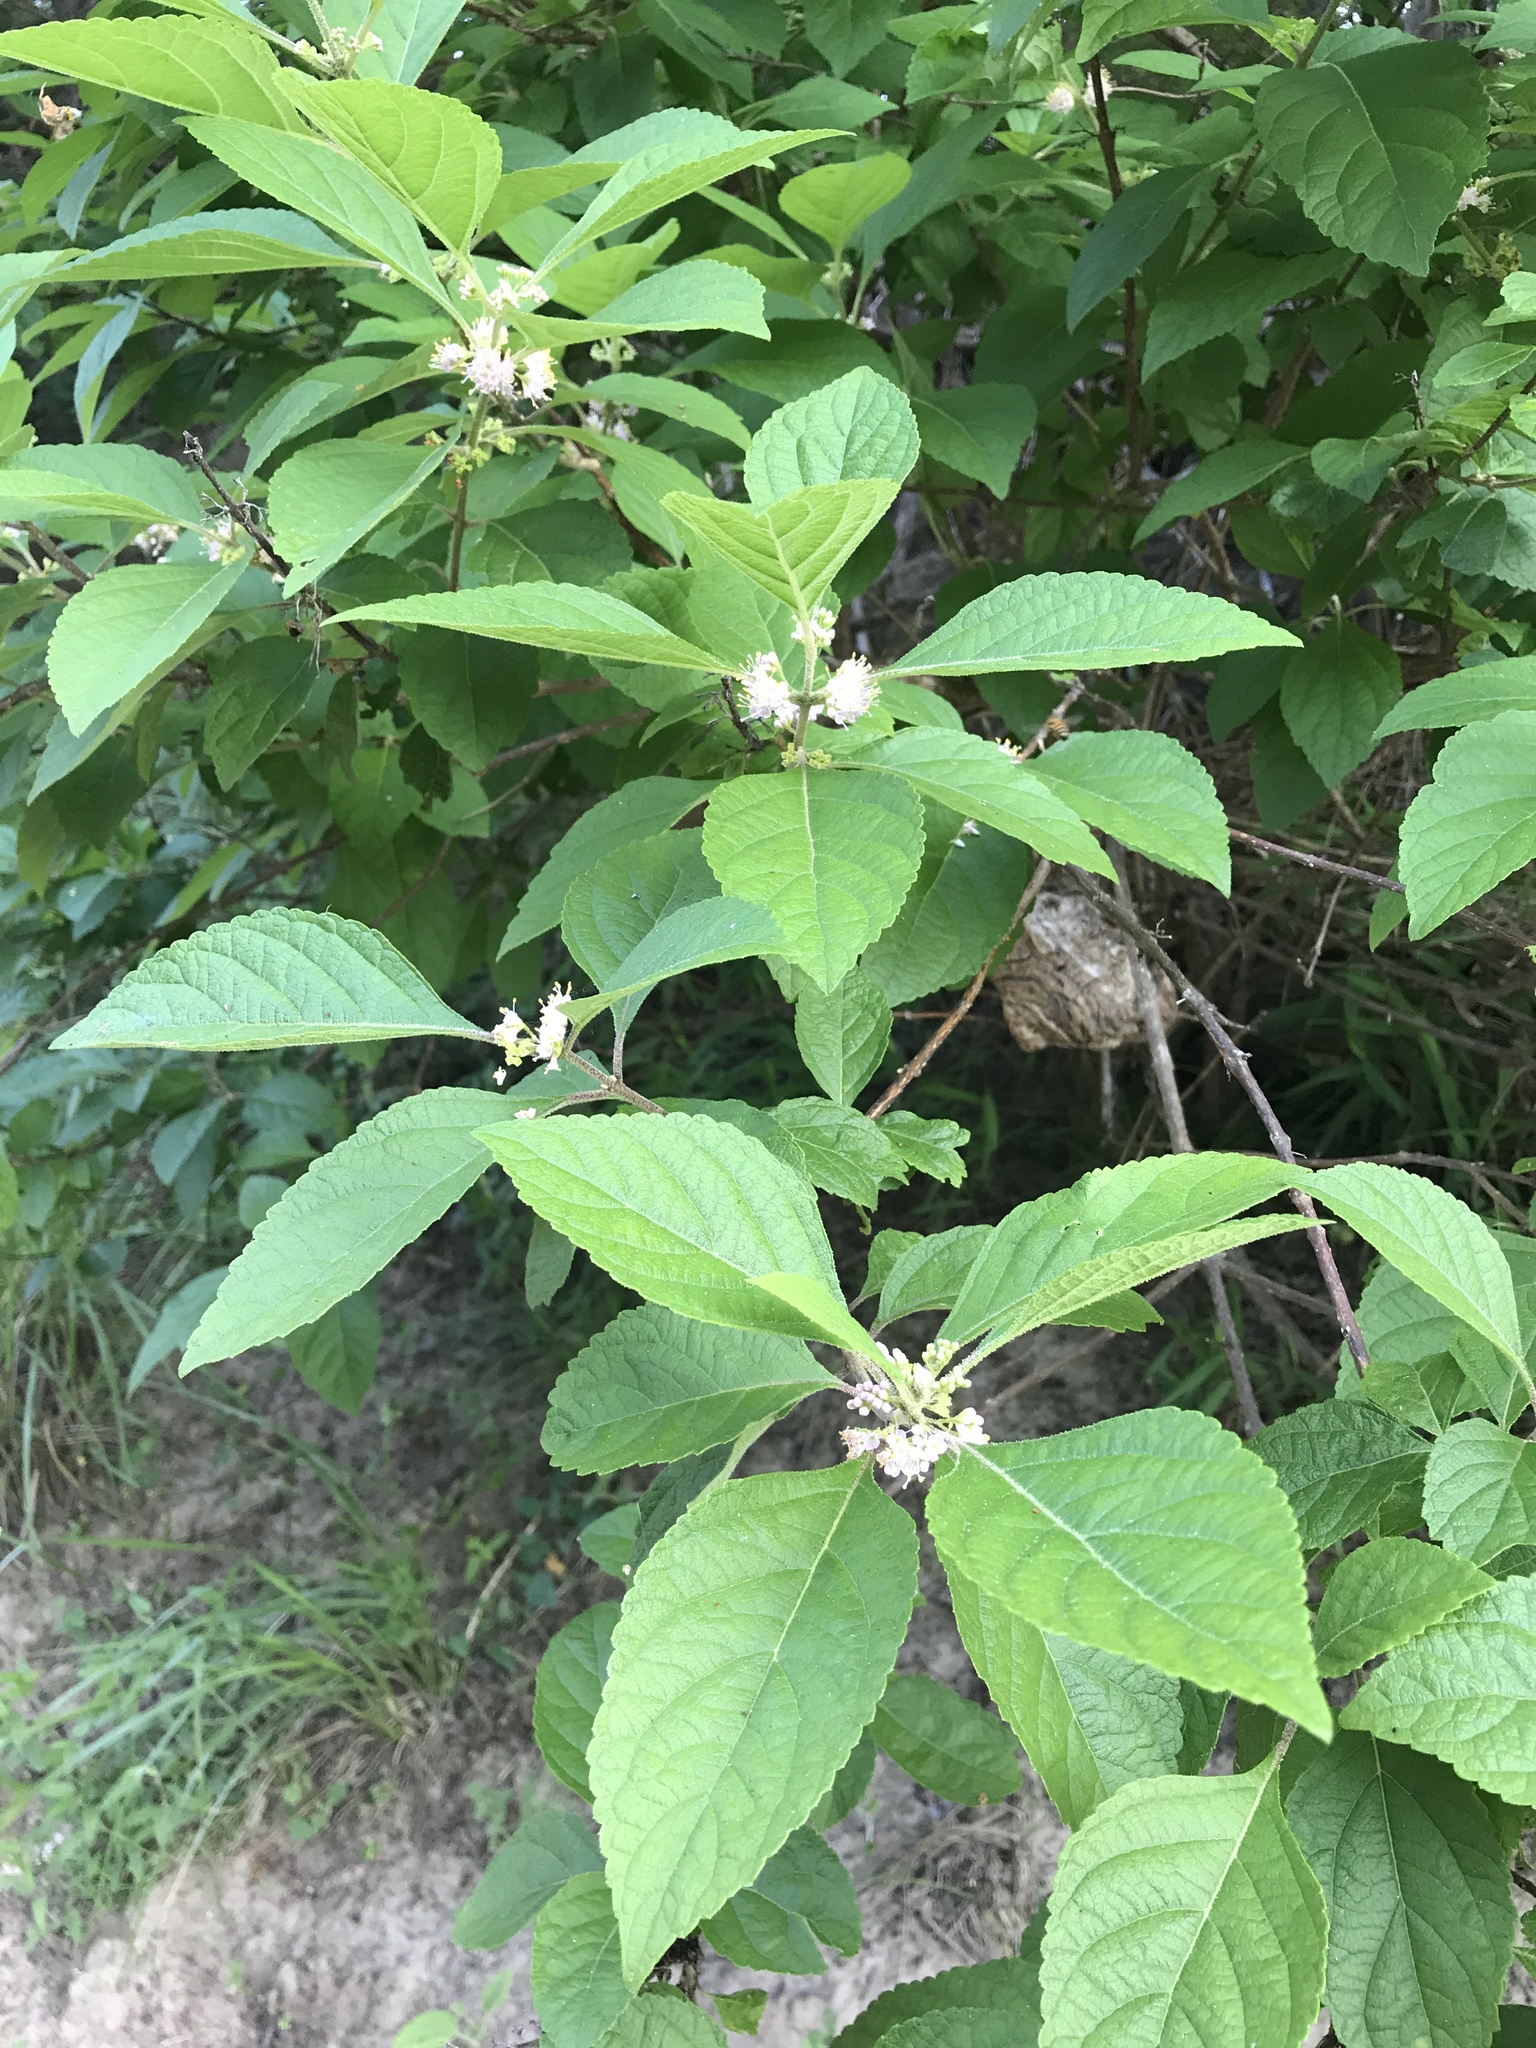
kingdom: Plantae
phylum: Tracheophyta
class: Magnoliopsida
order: Lamiales
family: Lamiaceae
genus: Callicarpa
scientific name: Callicarpa americana
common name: American beautyberry
